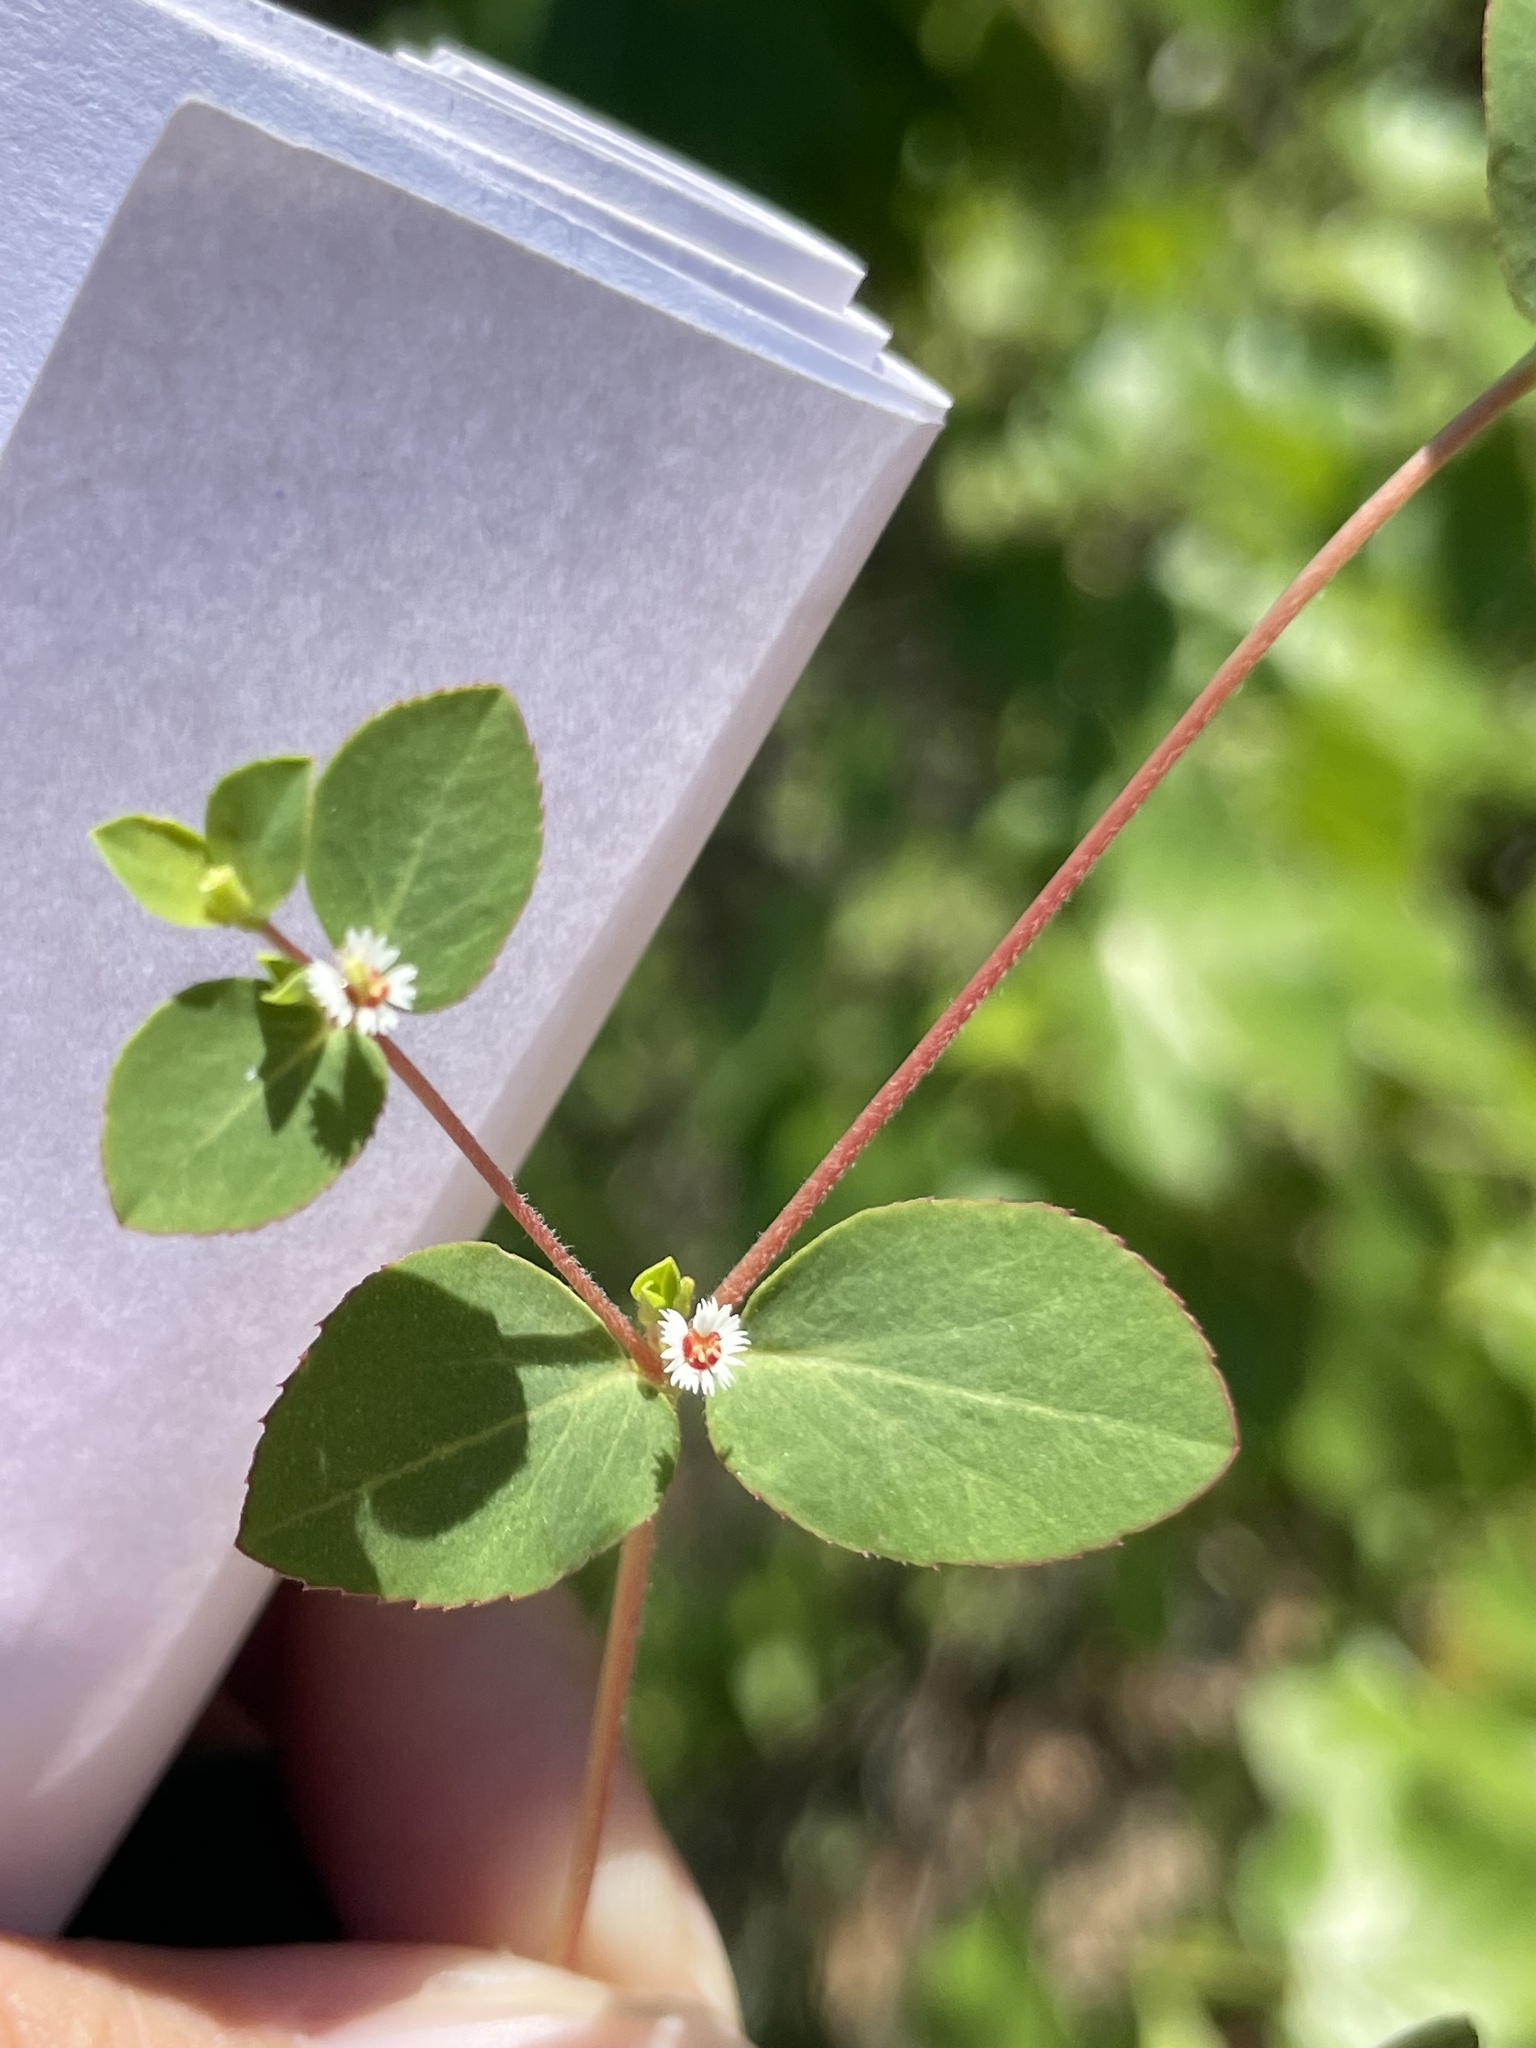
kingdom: Plantae
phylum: Tracheophyta
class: Magnoliopsida
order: Malpighiales
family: Euphorbiaceae
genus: Euphorbia
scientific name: Euphorbia dentosa
